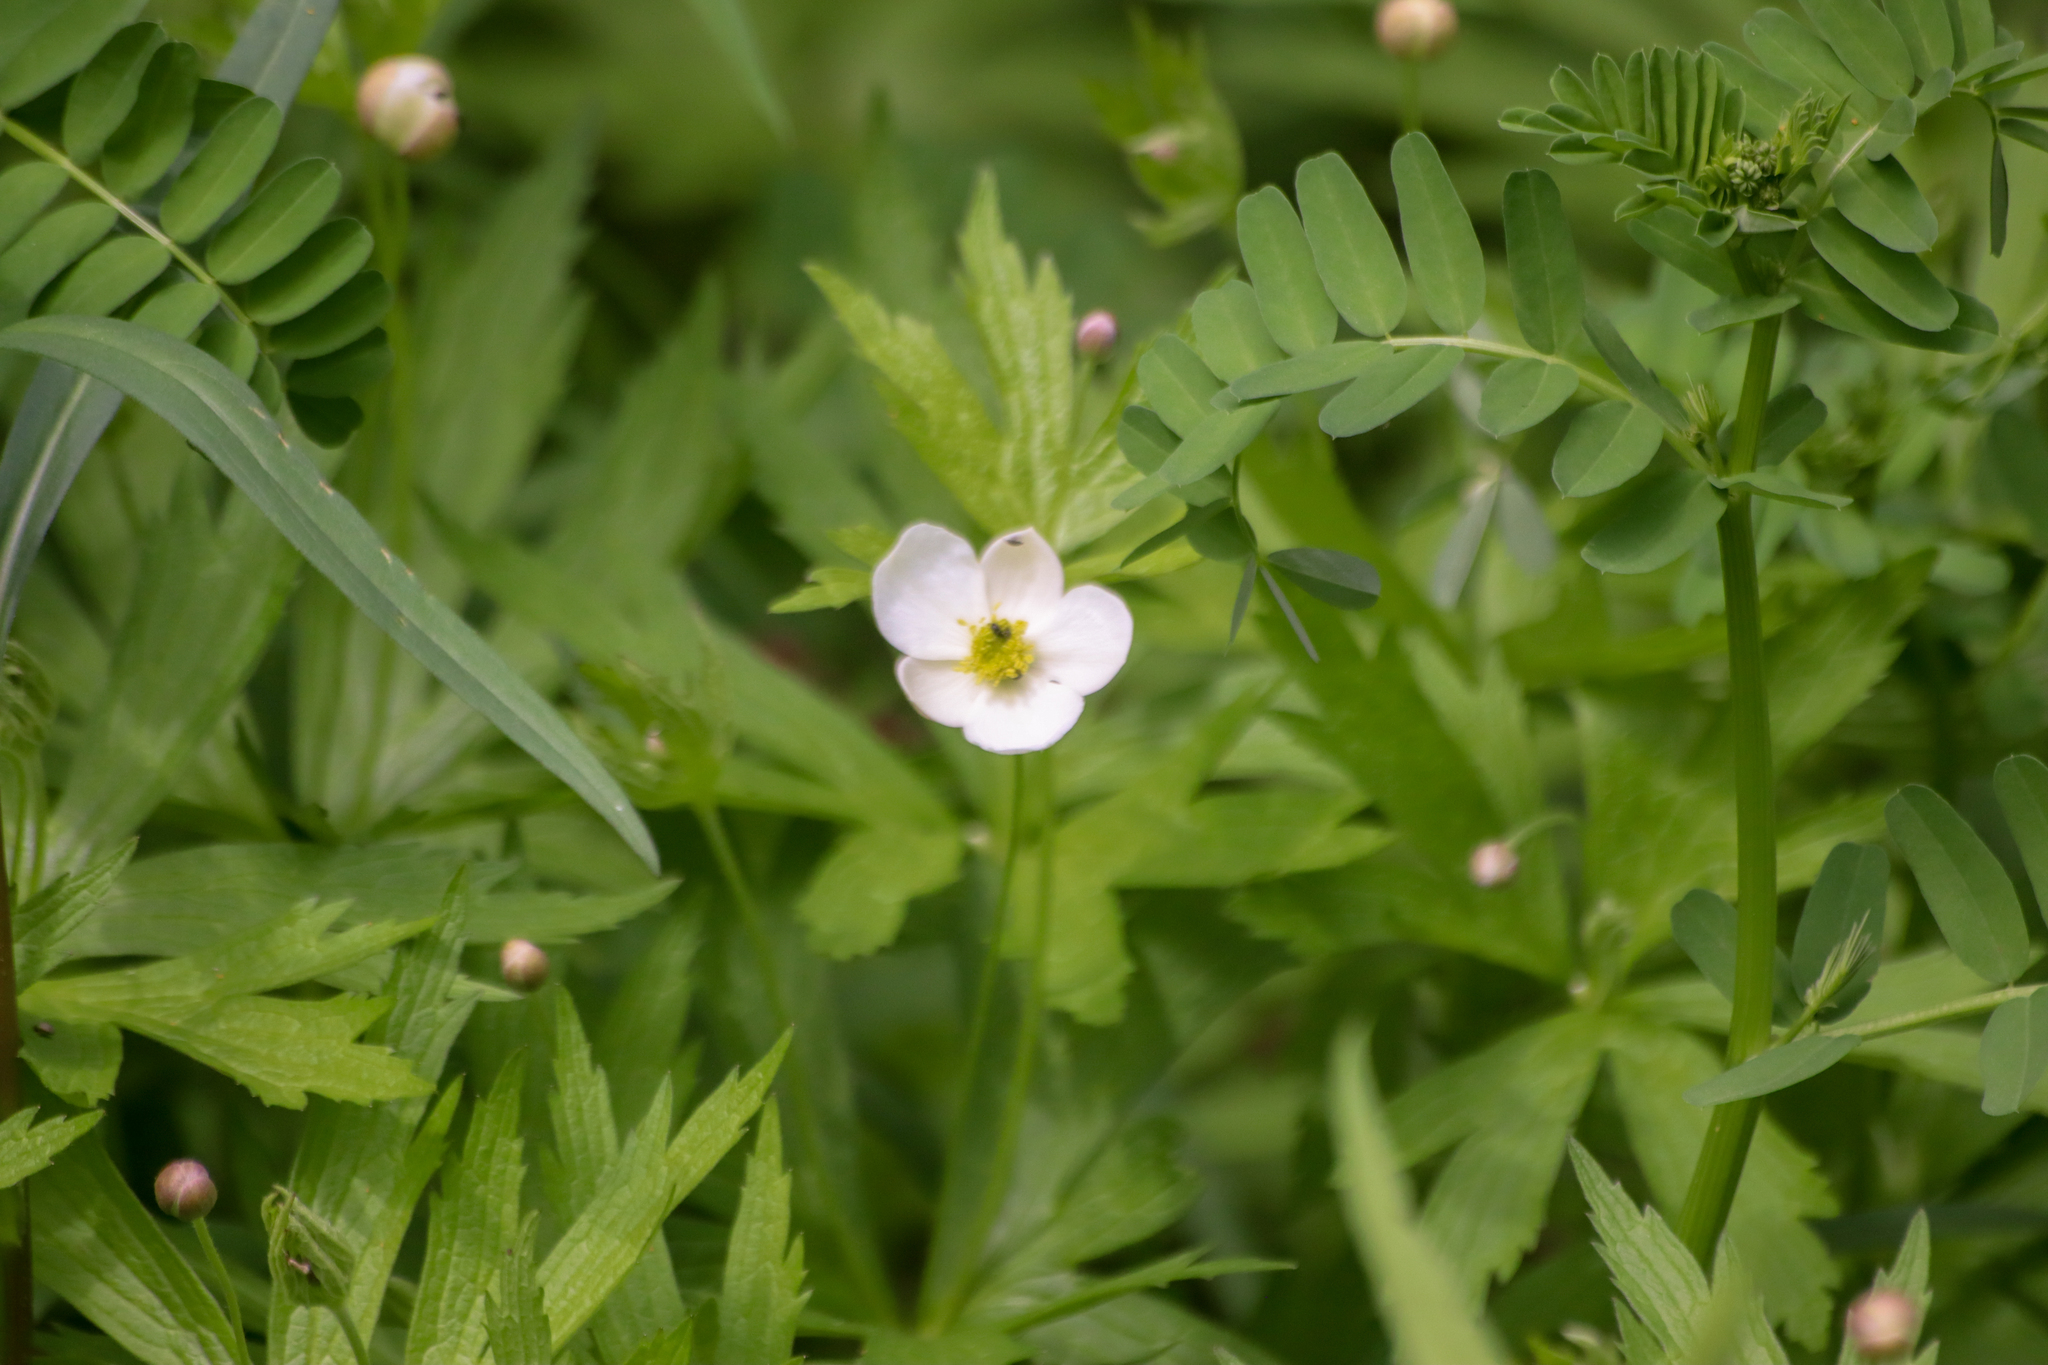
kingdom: Plantae
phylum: Tracheophyta
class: Magnoliopsida
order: Ranunculales
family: Ranunculaceae
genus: Anemonastrum
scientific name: Anemonastrum canadense
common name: Canada anemone
